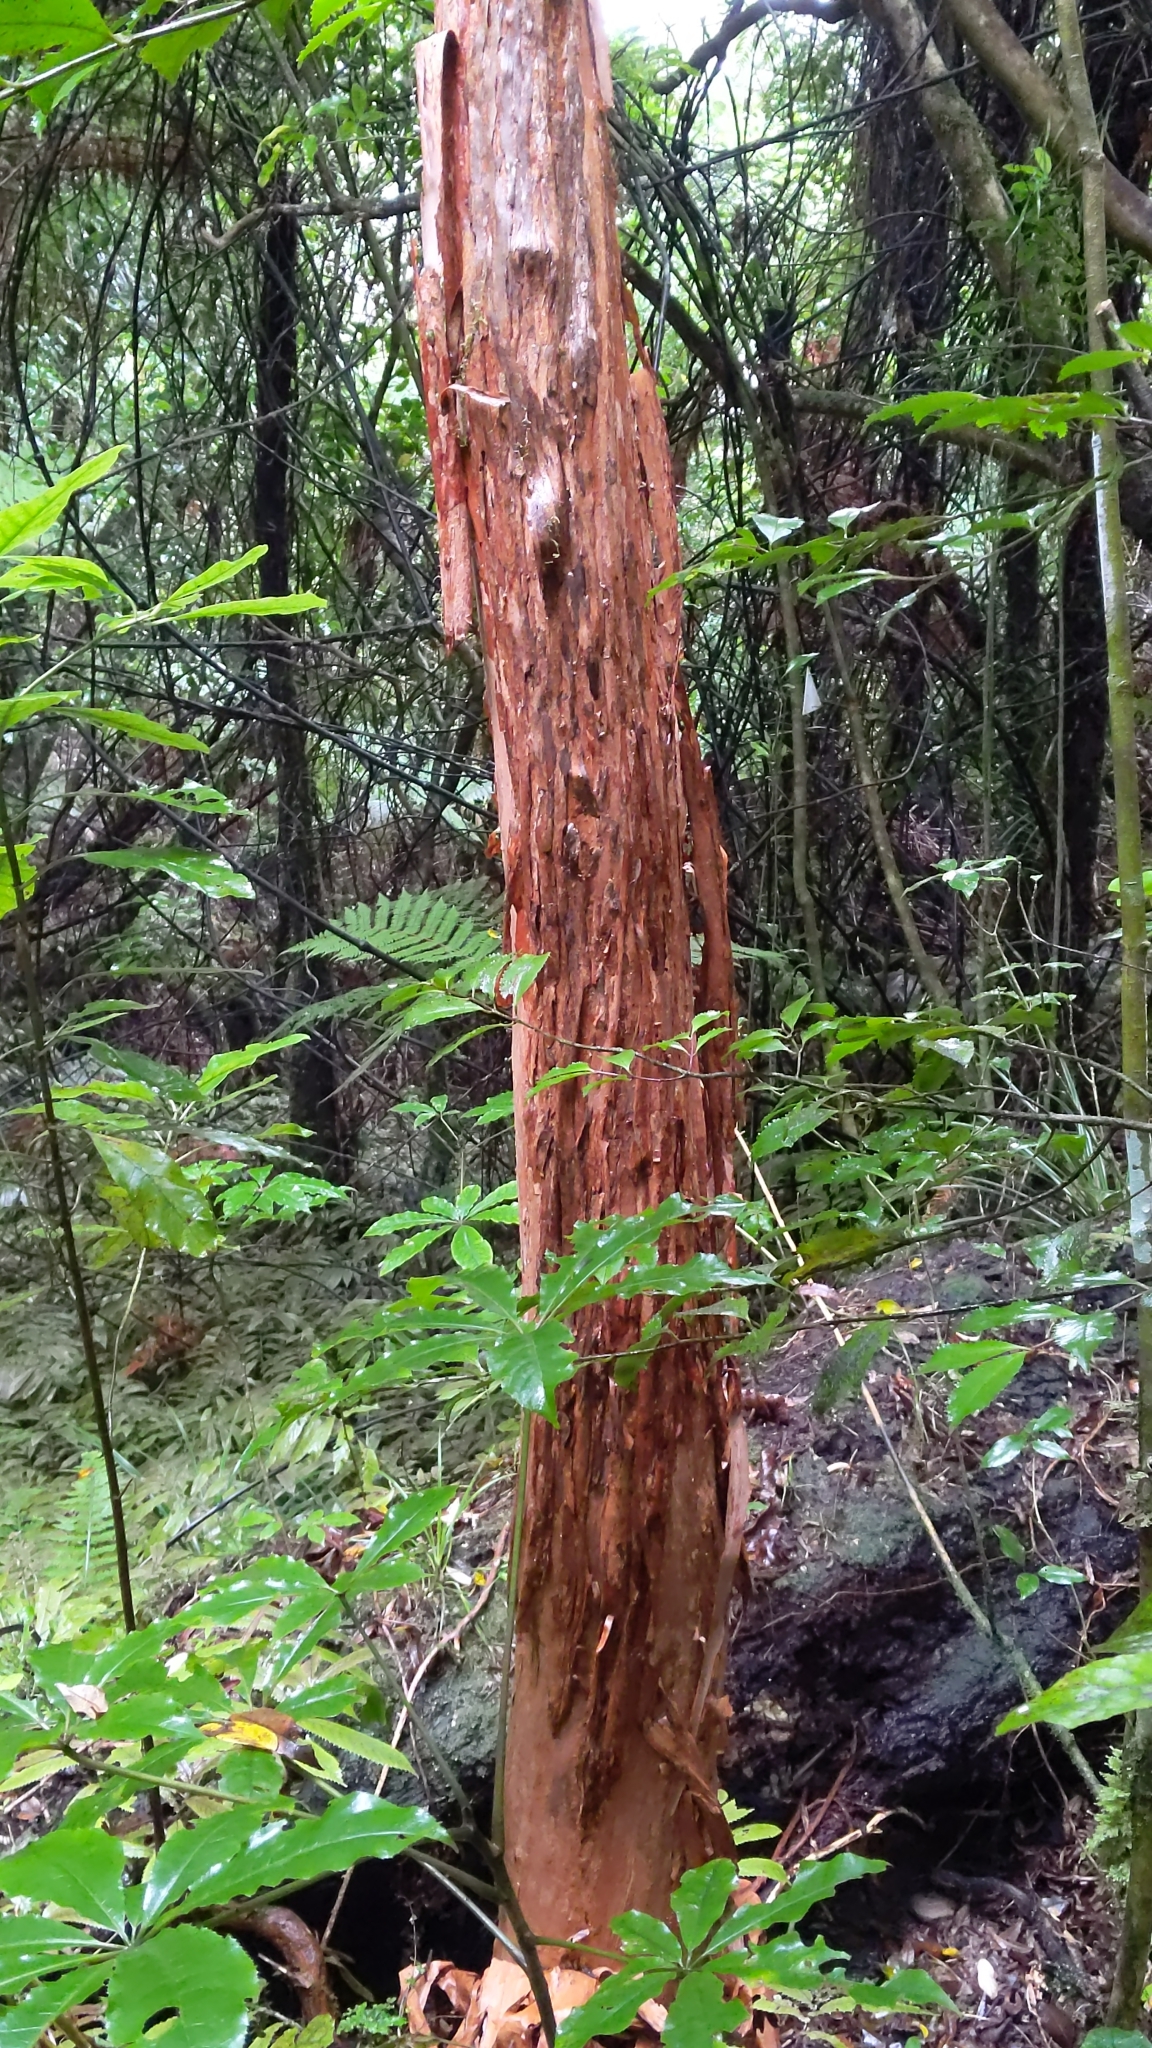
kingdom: Plantae
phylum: Tracheophyta
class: Magnoliopsida
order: Myrtales
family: Onagraceae
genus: Fuchsia
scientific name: Fuchsia excorticata
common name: Tree fuchsia
